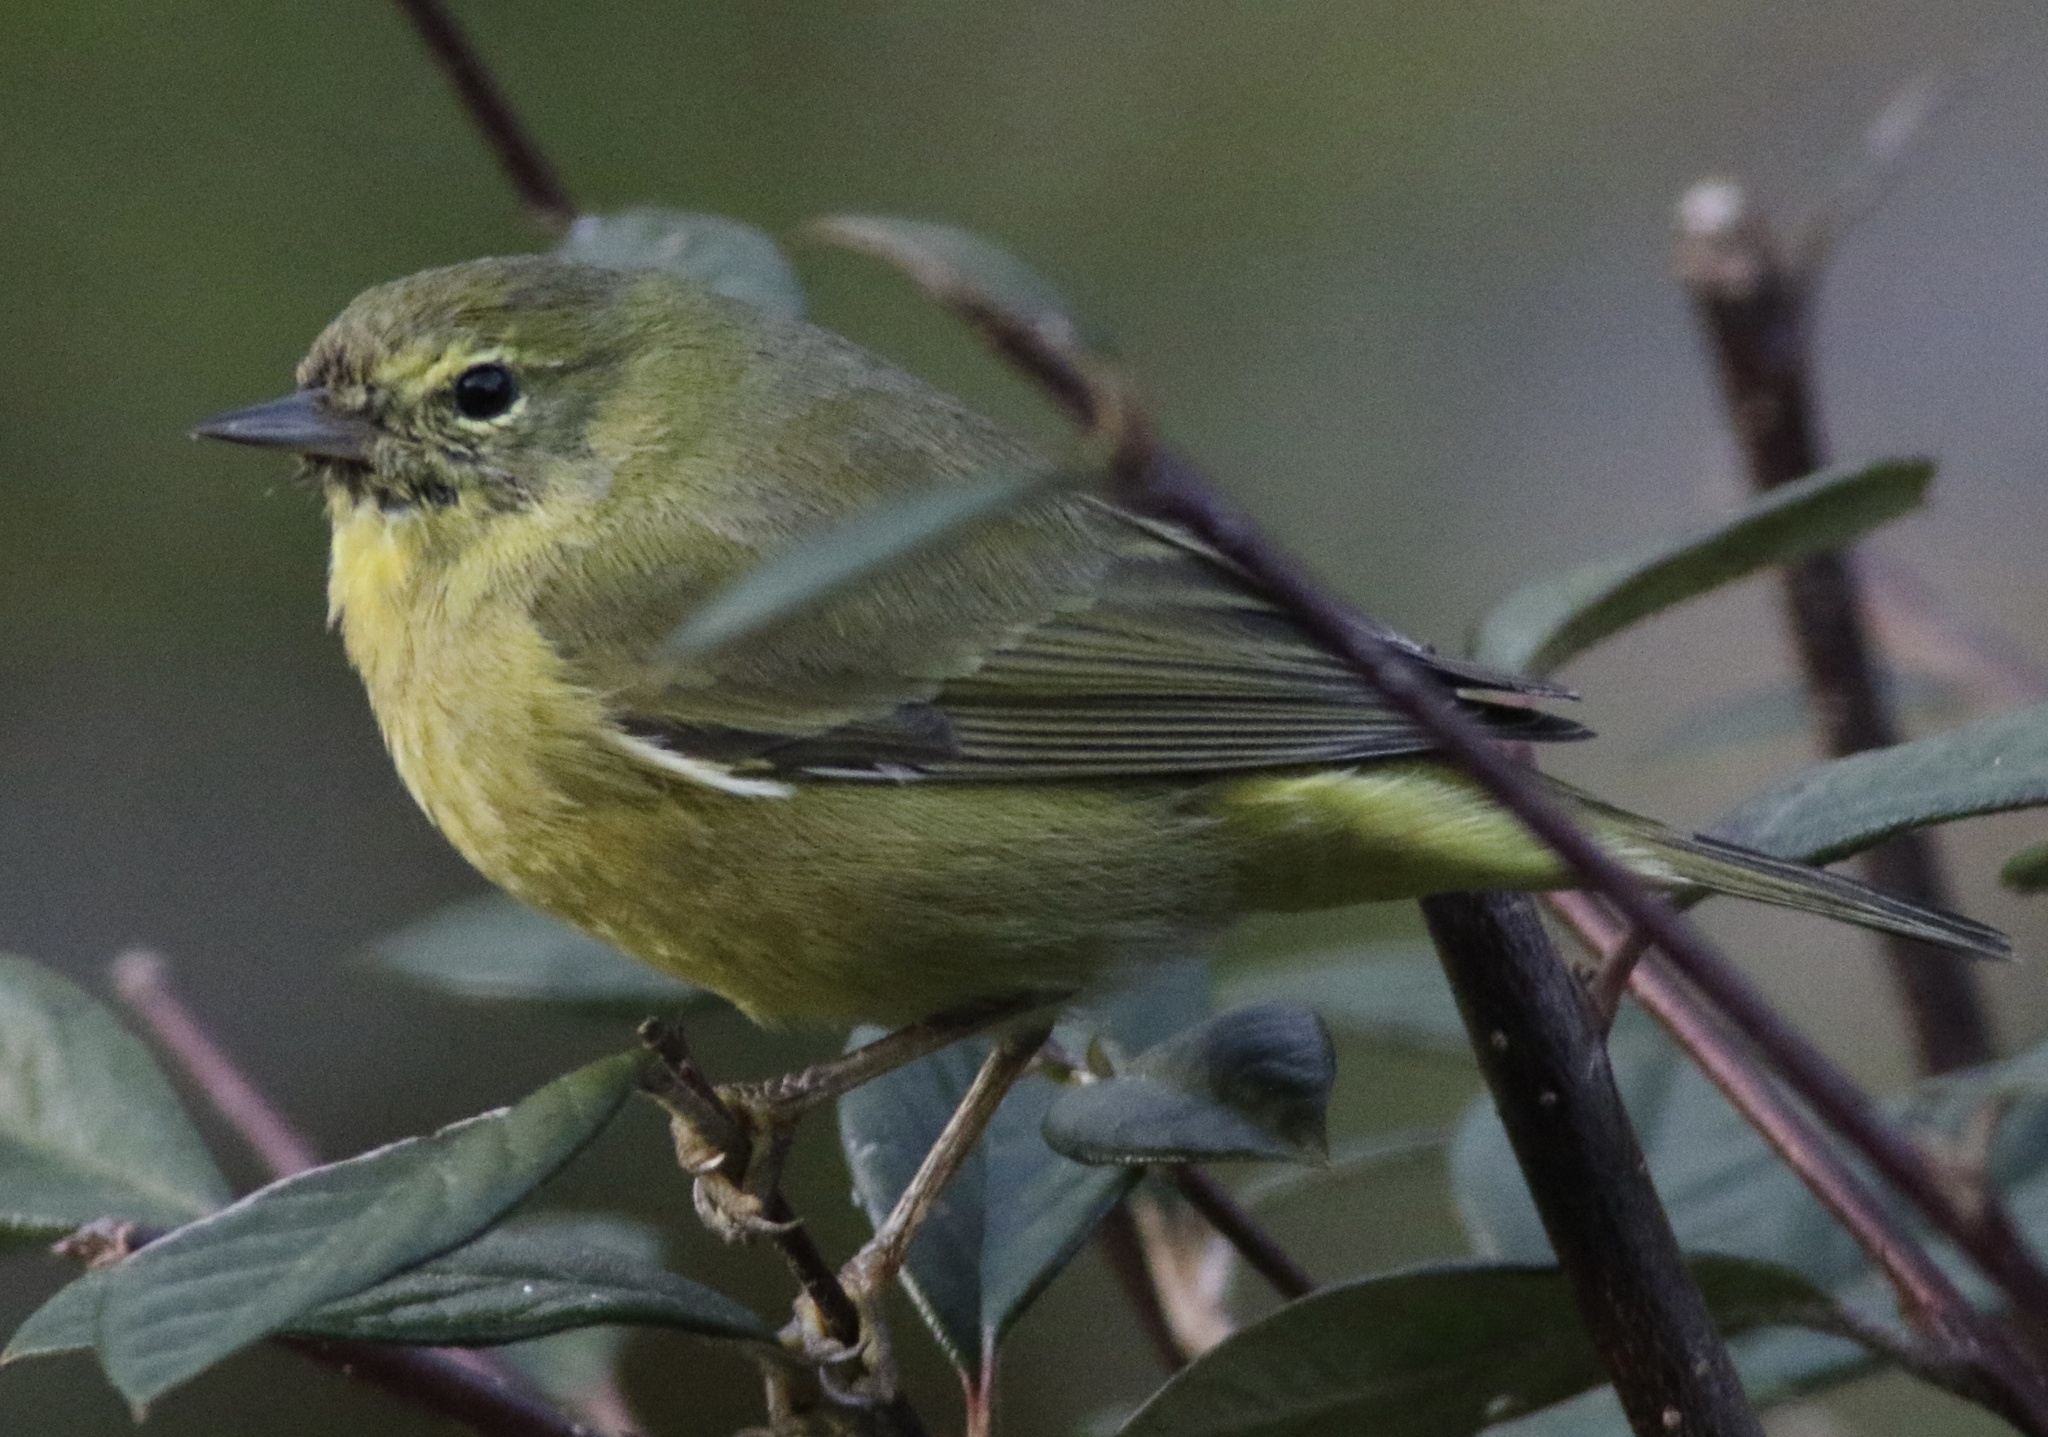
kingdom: Animalia
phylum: Chordata
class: Aves
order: Passeriformes
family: Parulidae
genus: Leiothlypis
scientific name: Leiothlypis celata
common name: Orange-crowned warbler
